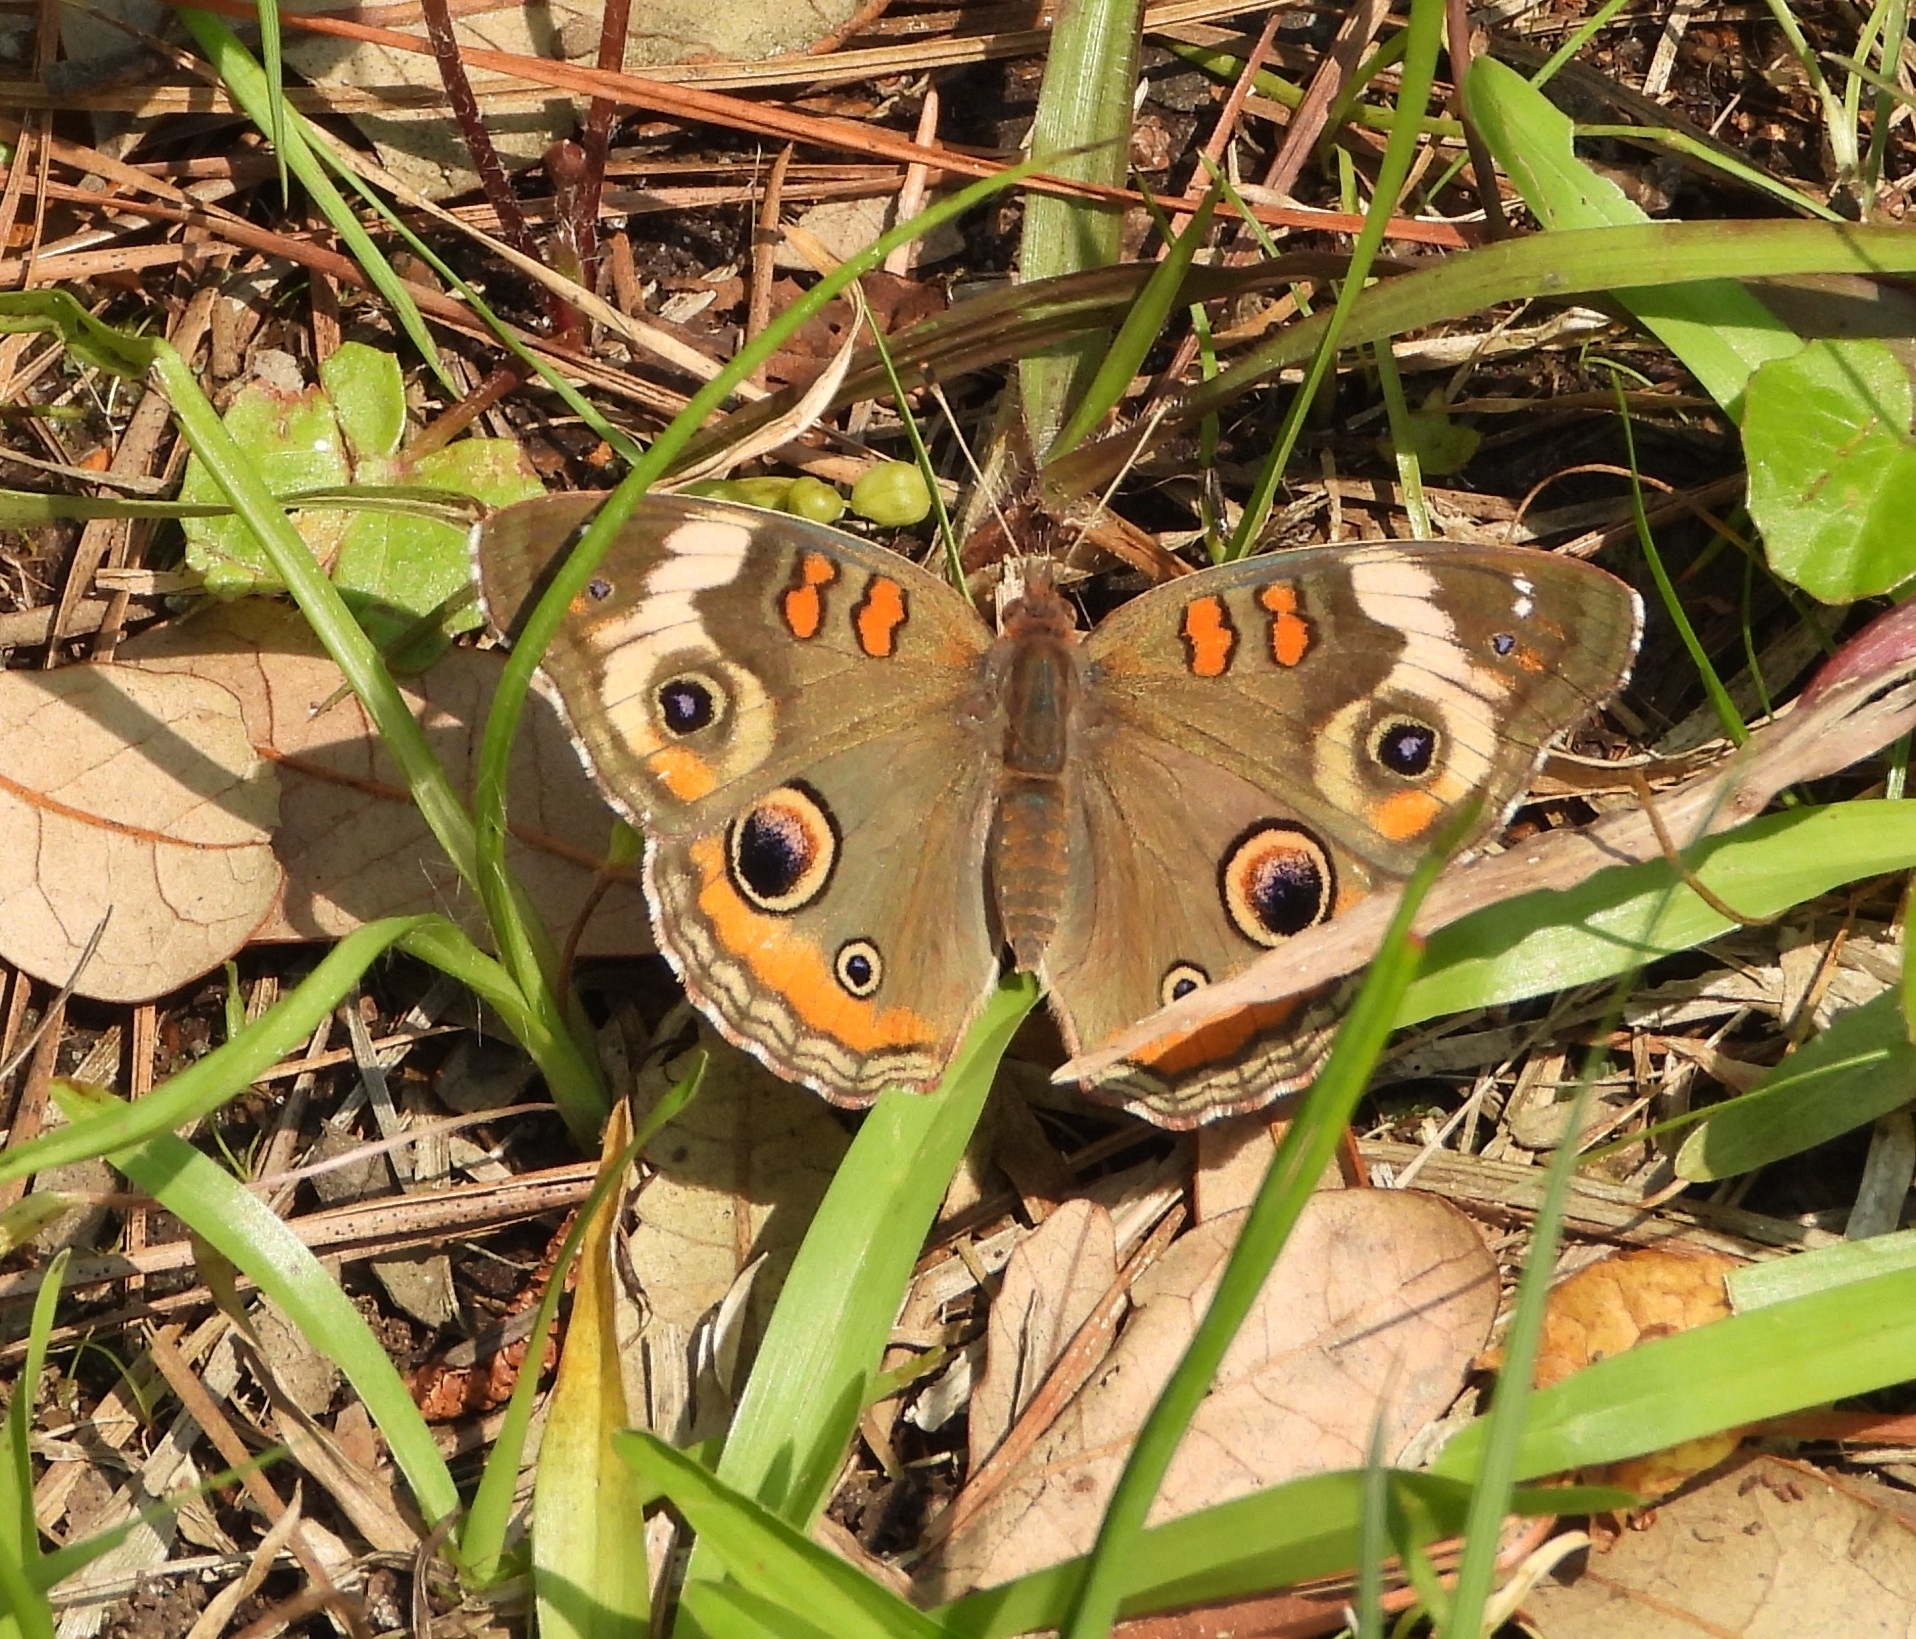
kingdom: Animalia
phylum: Arthropoda
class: Insecta
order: Lepidoptera
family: Nymphalidae
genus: Junonia
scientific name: Junonia coenia
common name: Common buckeye
